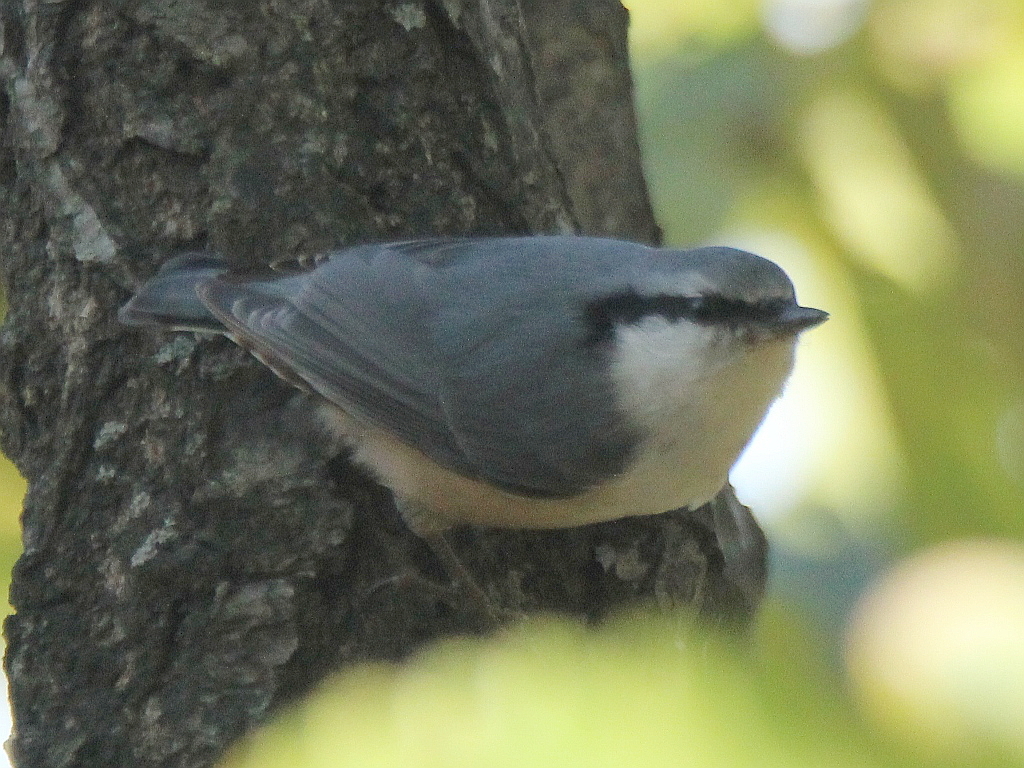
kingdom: Animalia
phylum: Chordata
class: Aves
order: Passeriformes
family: Sittidae
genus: Sitta
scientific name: Sitta europaea
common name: Eurasian nuthatch
